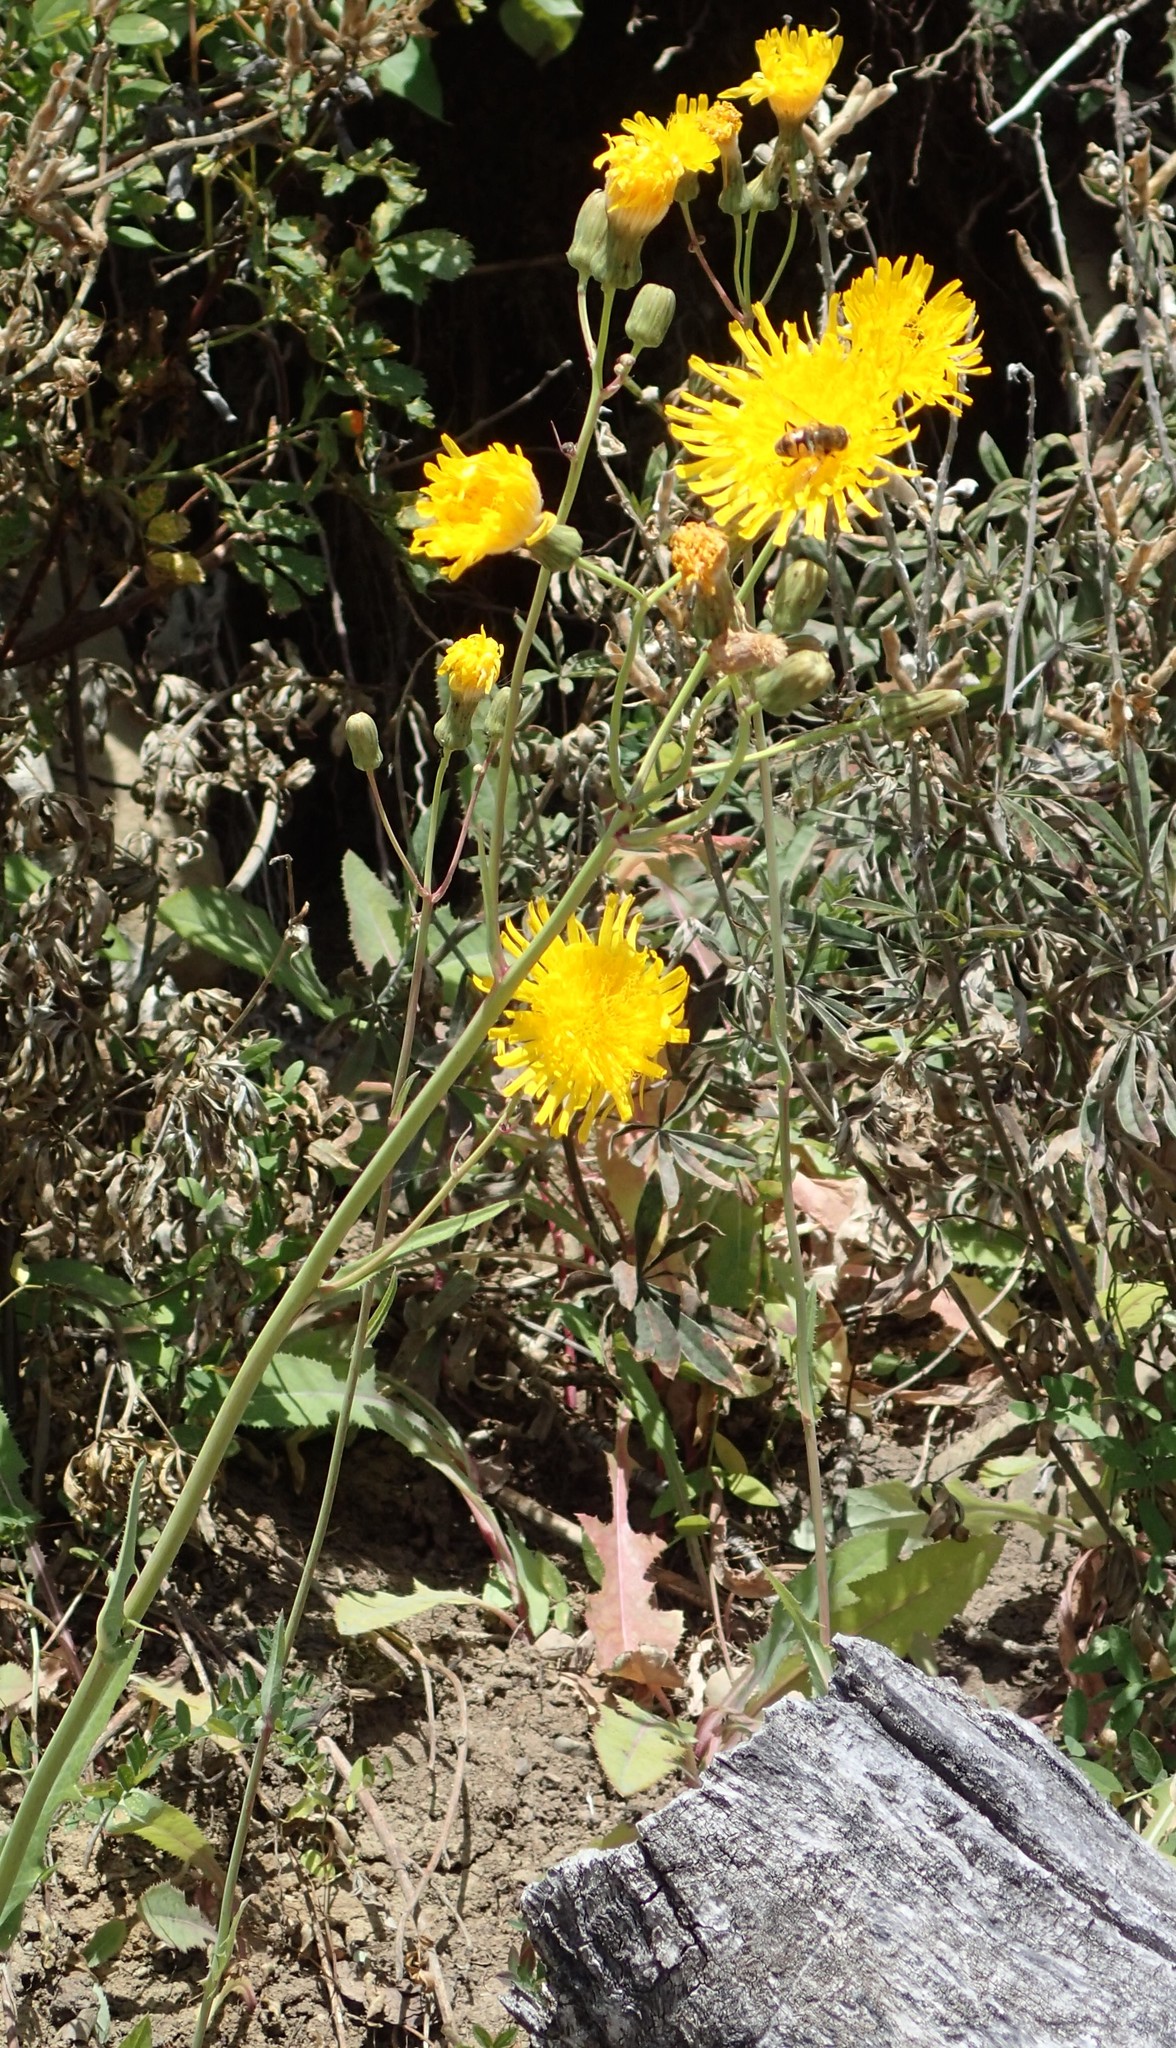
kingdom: Plantae
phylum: Tracheophyta
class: Magnoliopsida
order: Asterales
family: Asteraceae
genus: Sonchus
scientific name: Sonchus arvensis
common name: Perennial sow-thistle
